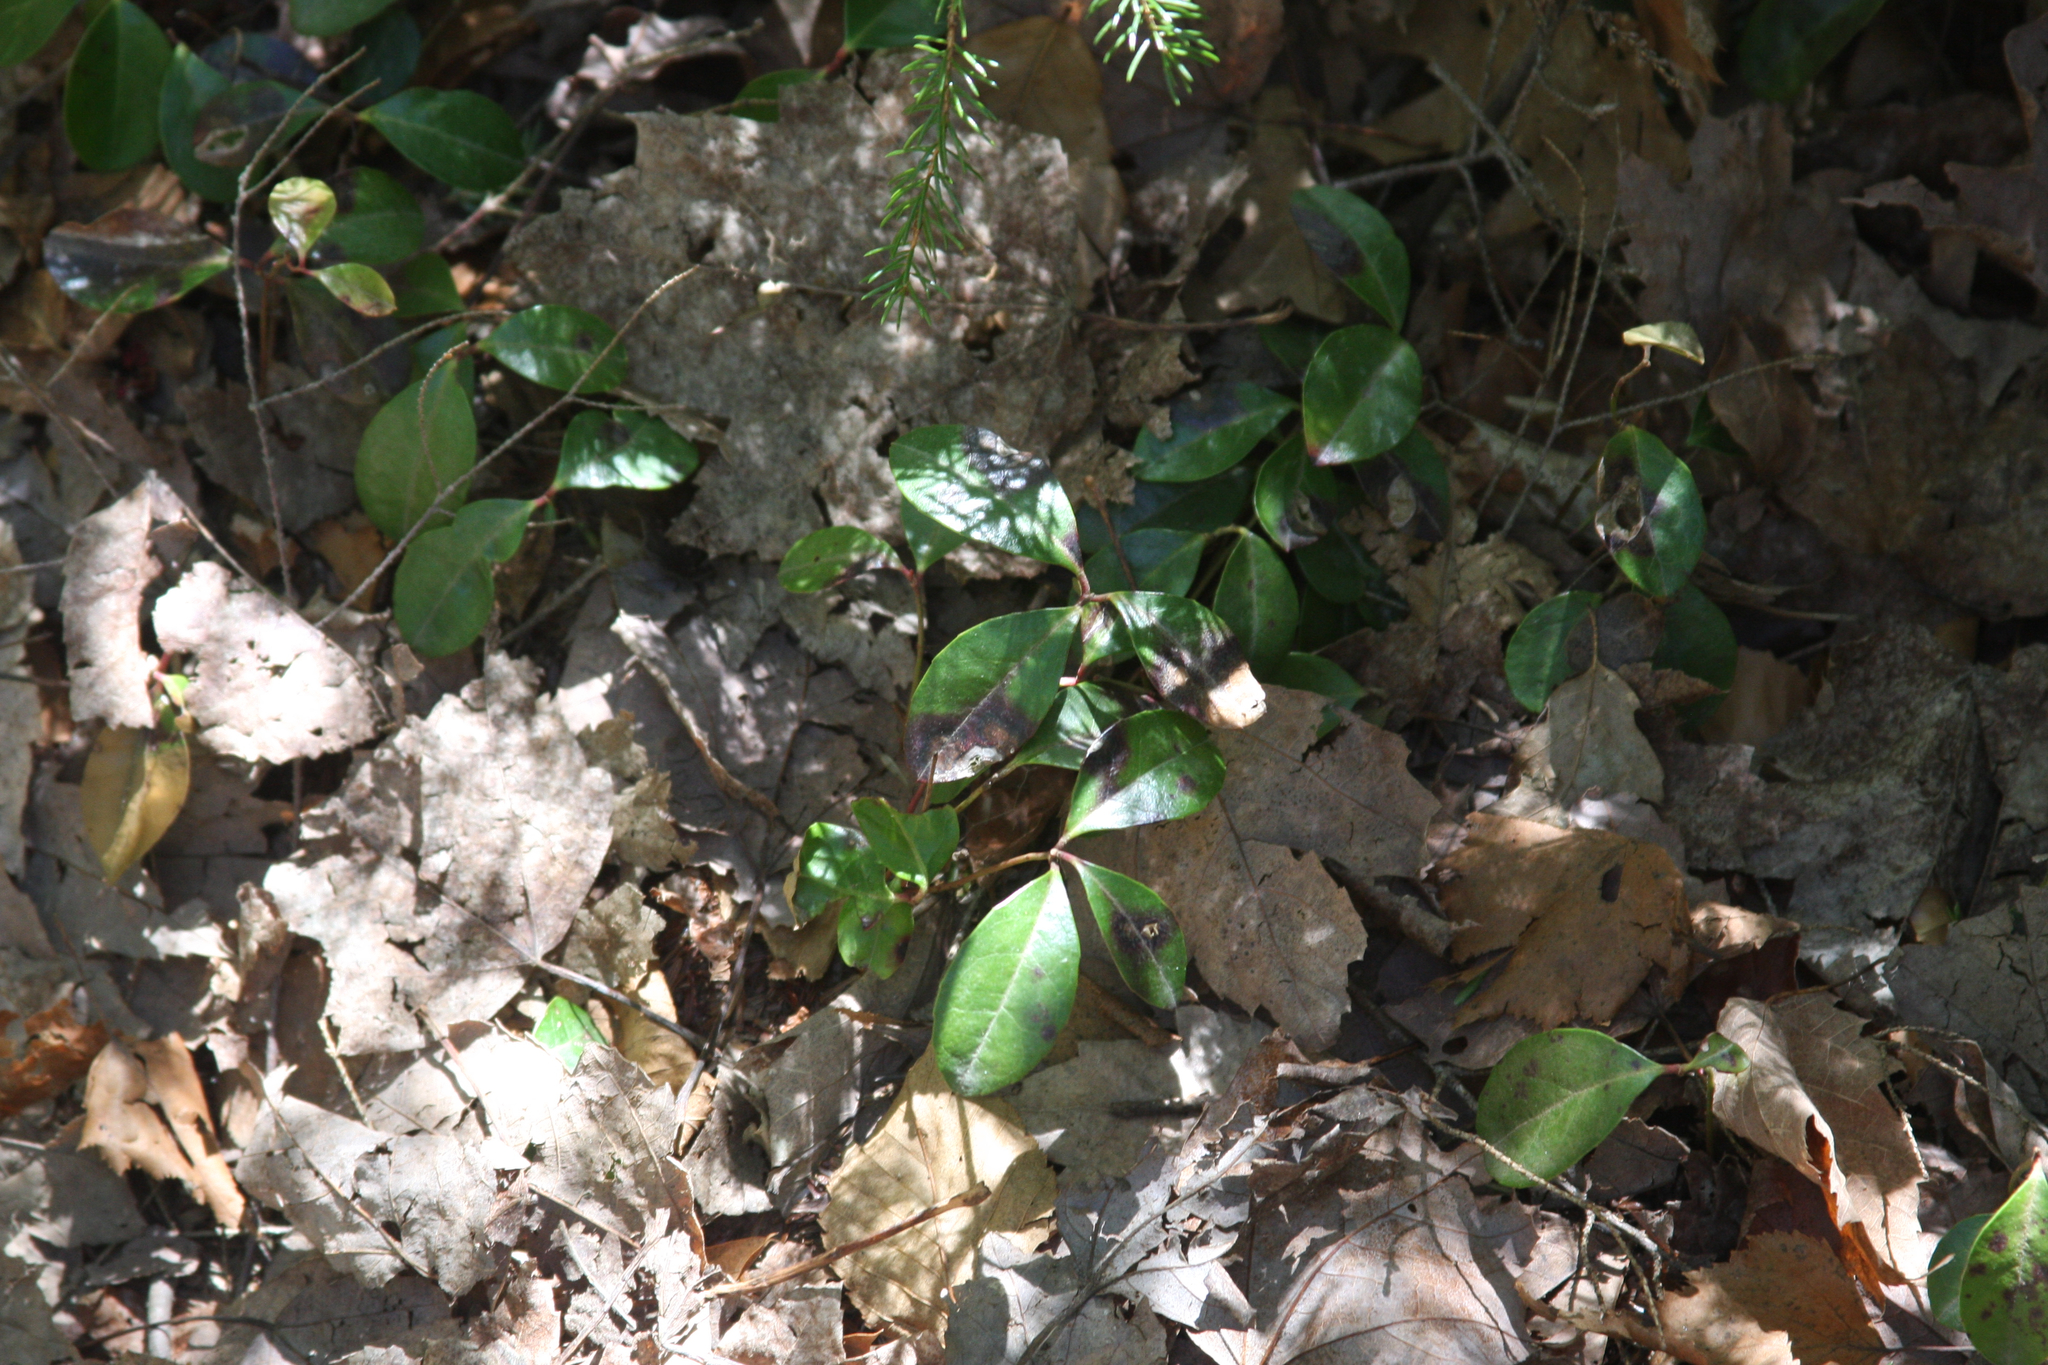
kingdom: Plantae
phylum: Tracheophyta
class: Magnoliopsida
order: Ericales
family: Ericaceae
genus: Gaultheria
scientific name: Gaultheria procumbens
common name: Checkerberry
